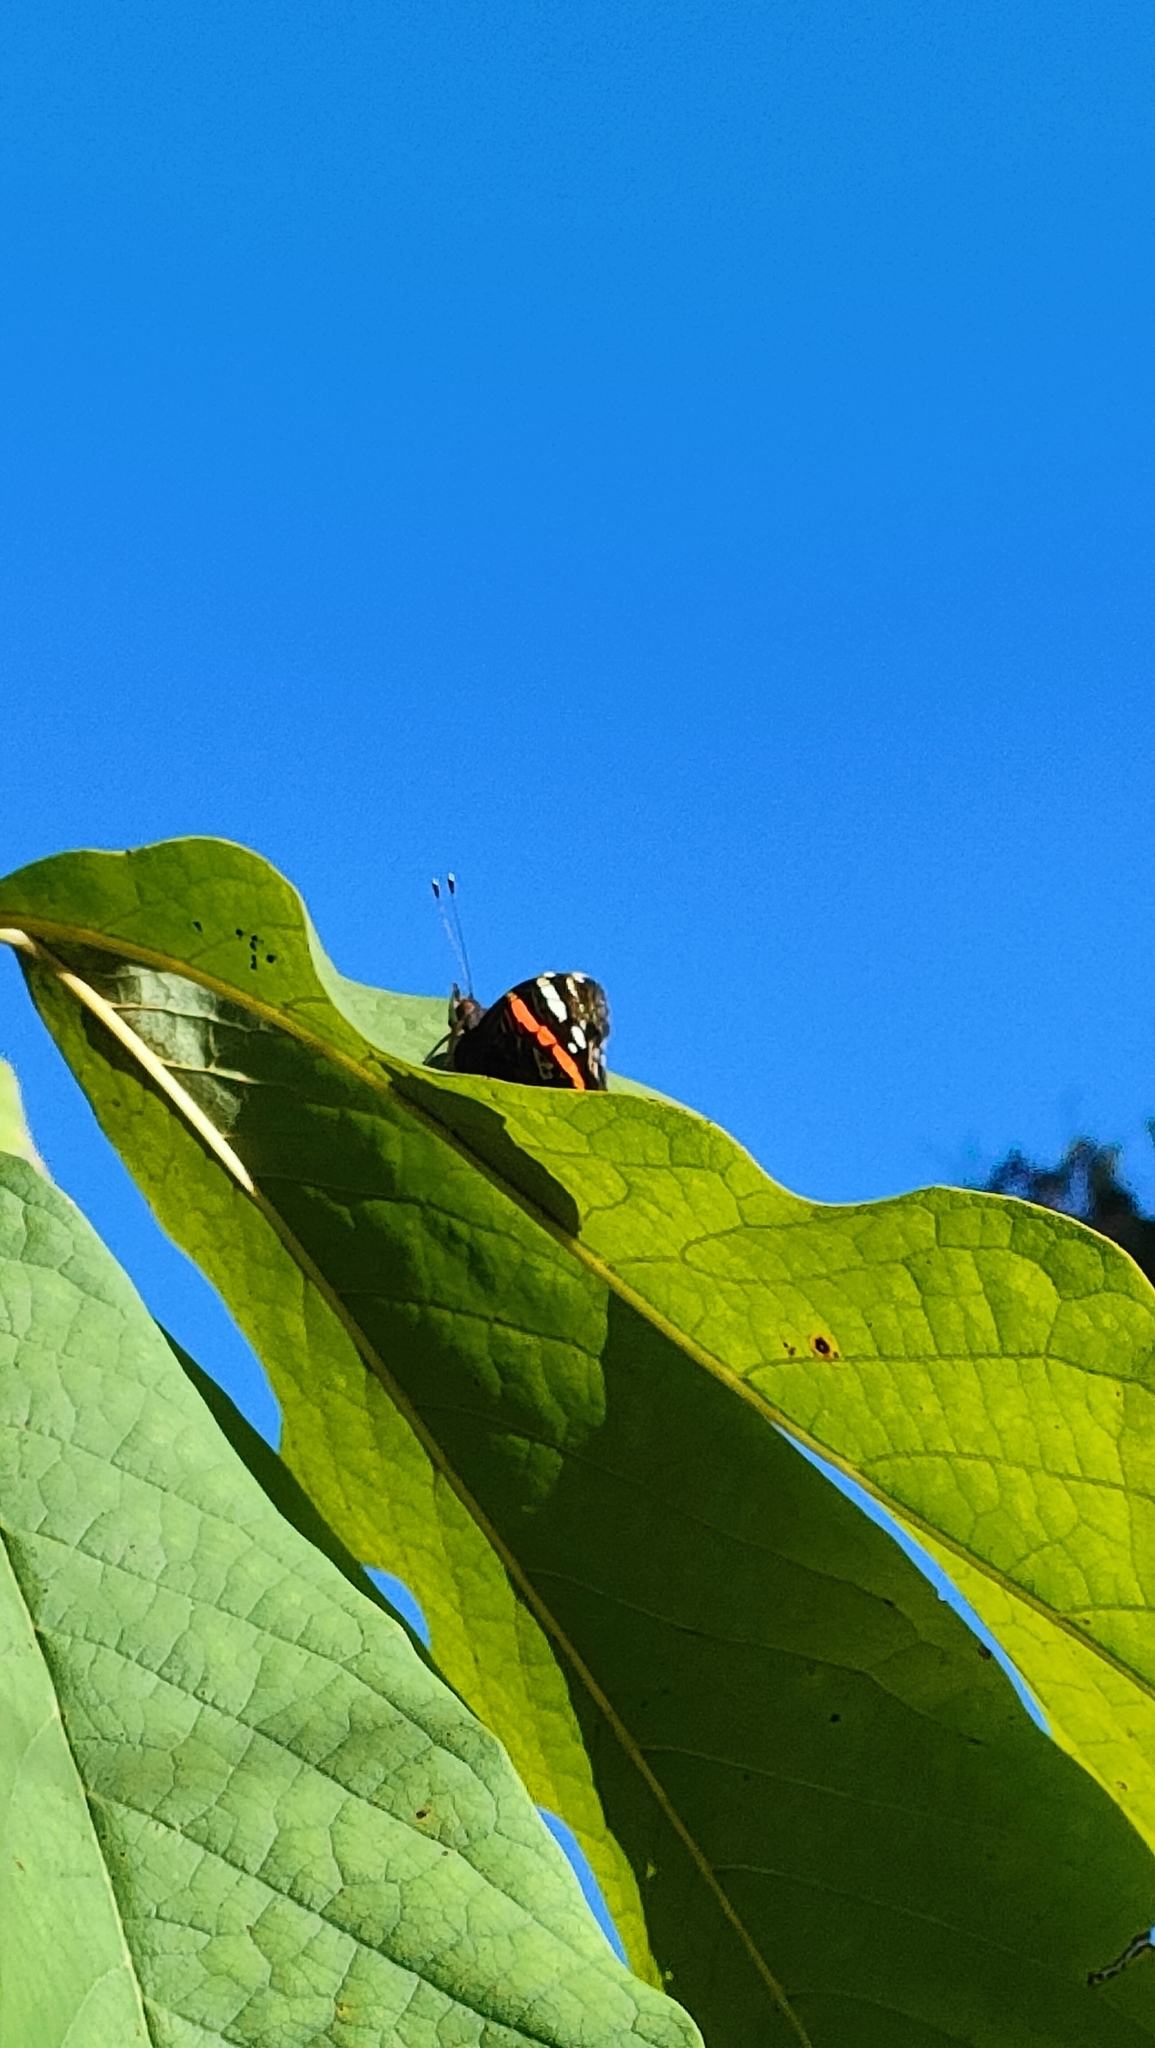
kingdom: Animalia
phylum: Arthropoda
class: Insecta
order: Lepidoptera
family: Nymphalidae
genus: Vanessa
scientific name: Vanessa atalanta
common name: Red admiral
